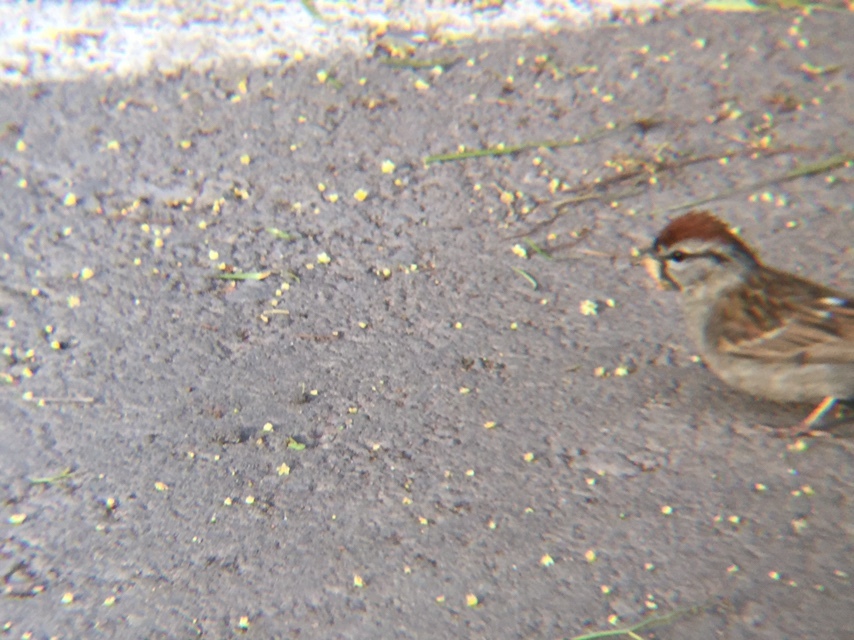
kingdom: Animalia
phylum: Chordata
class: Aves
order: Passeriformes
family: Passerellidae
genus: Spizella
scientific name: Spizella passerina
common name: Chipping sparrow
